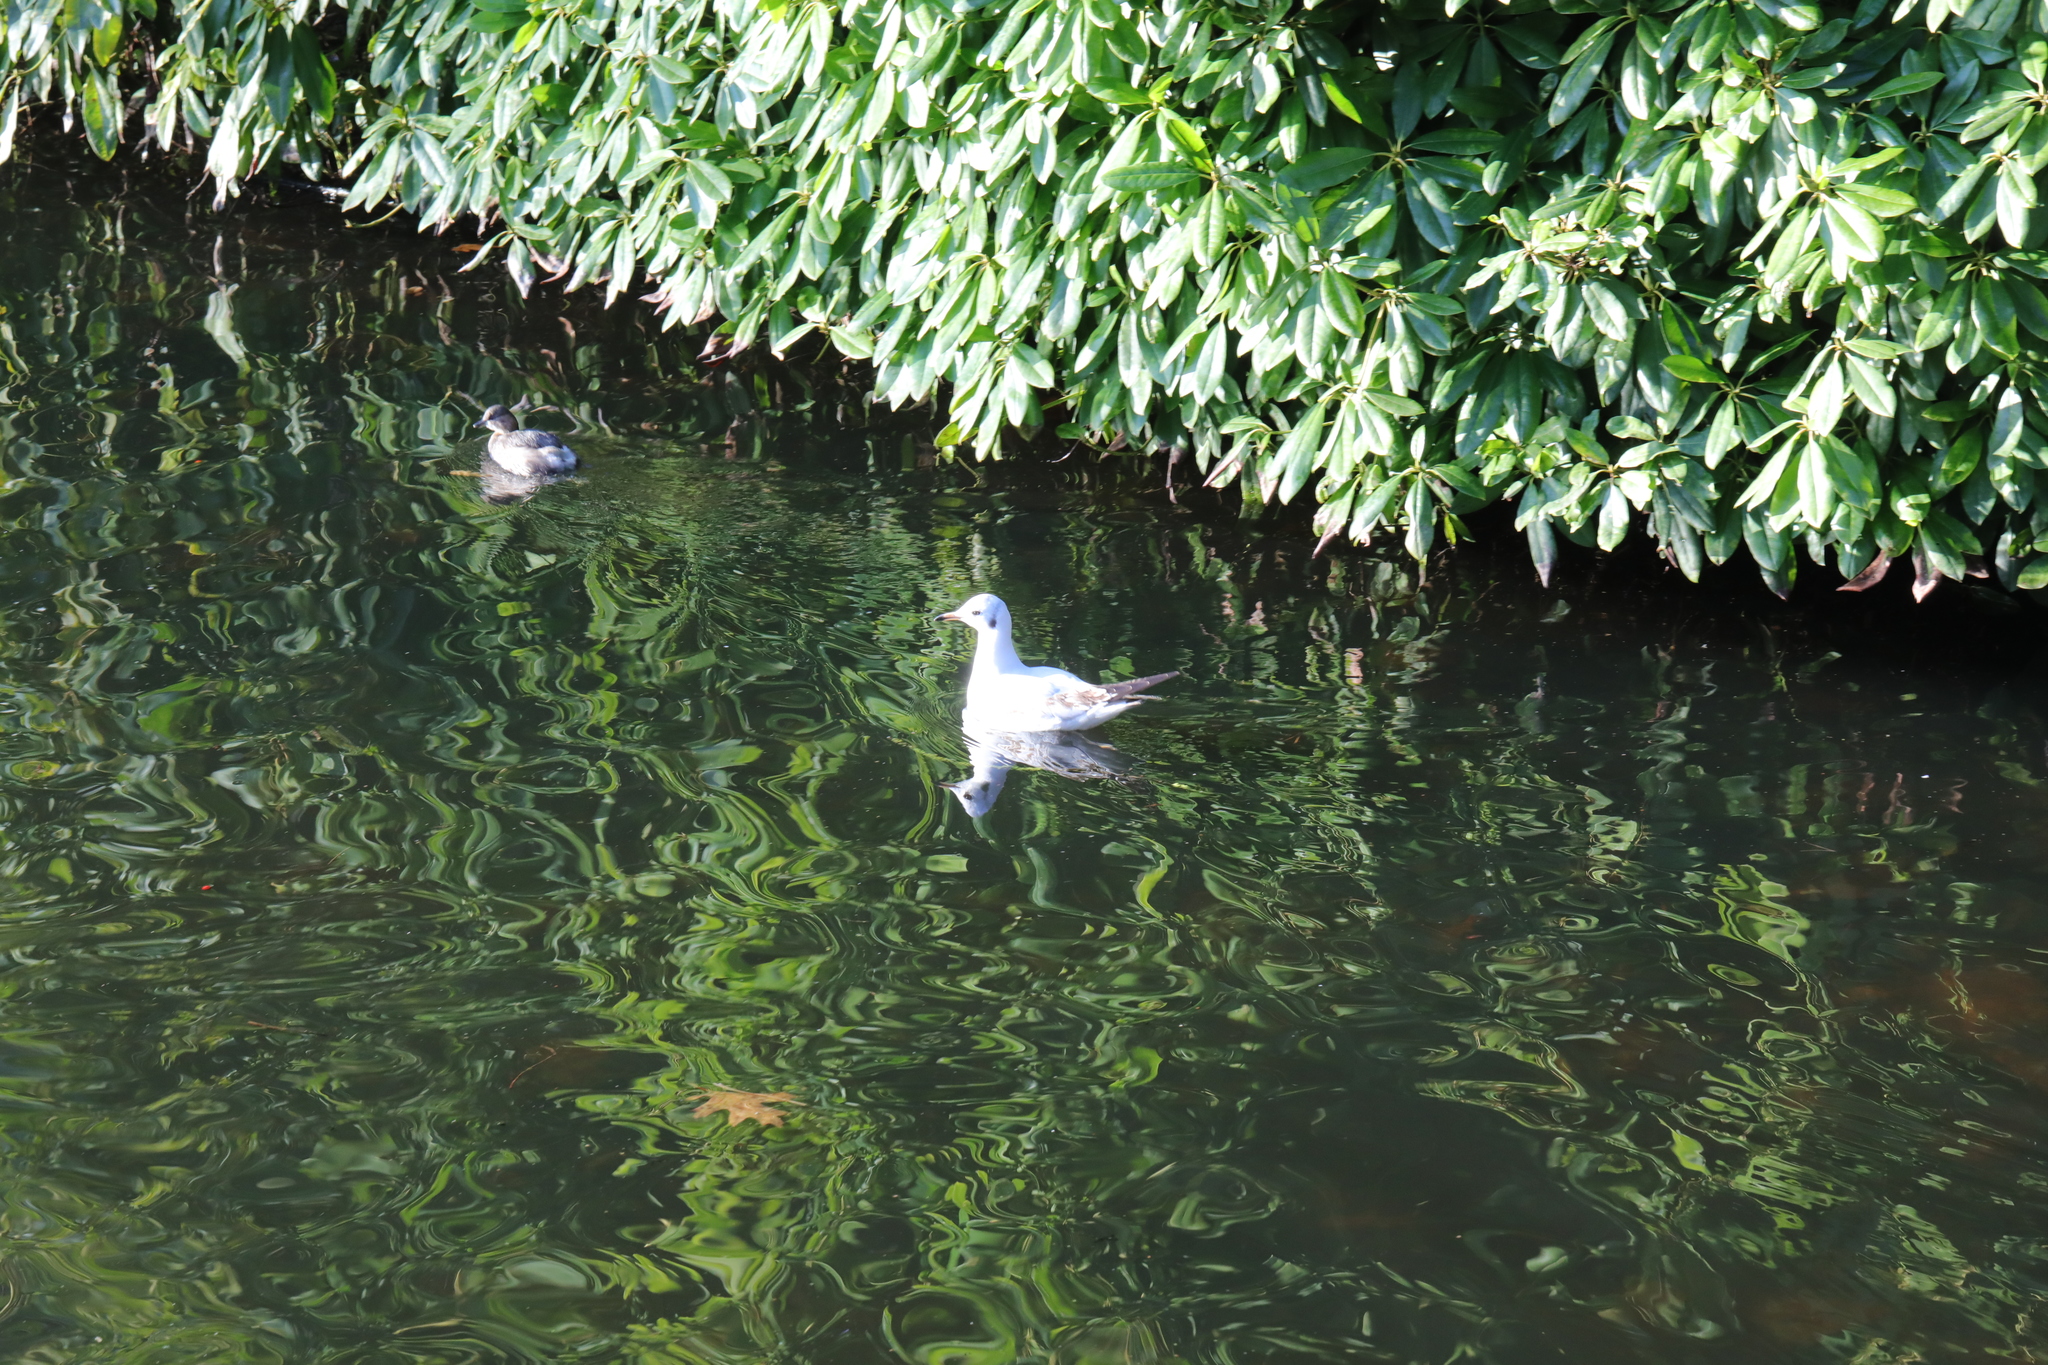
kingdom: Animalia
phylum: Chordata
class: Aves
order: Charadriiformes
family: Laridae
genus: Chroicocephalus
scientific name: Chroicocephalus ridibundus
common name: Black-headed gull
